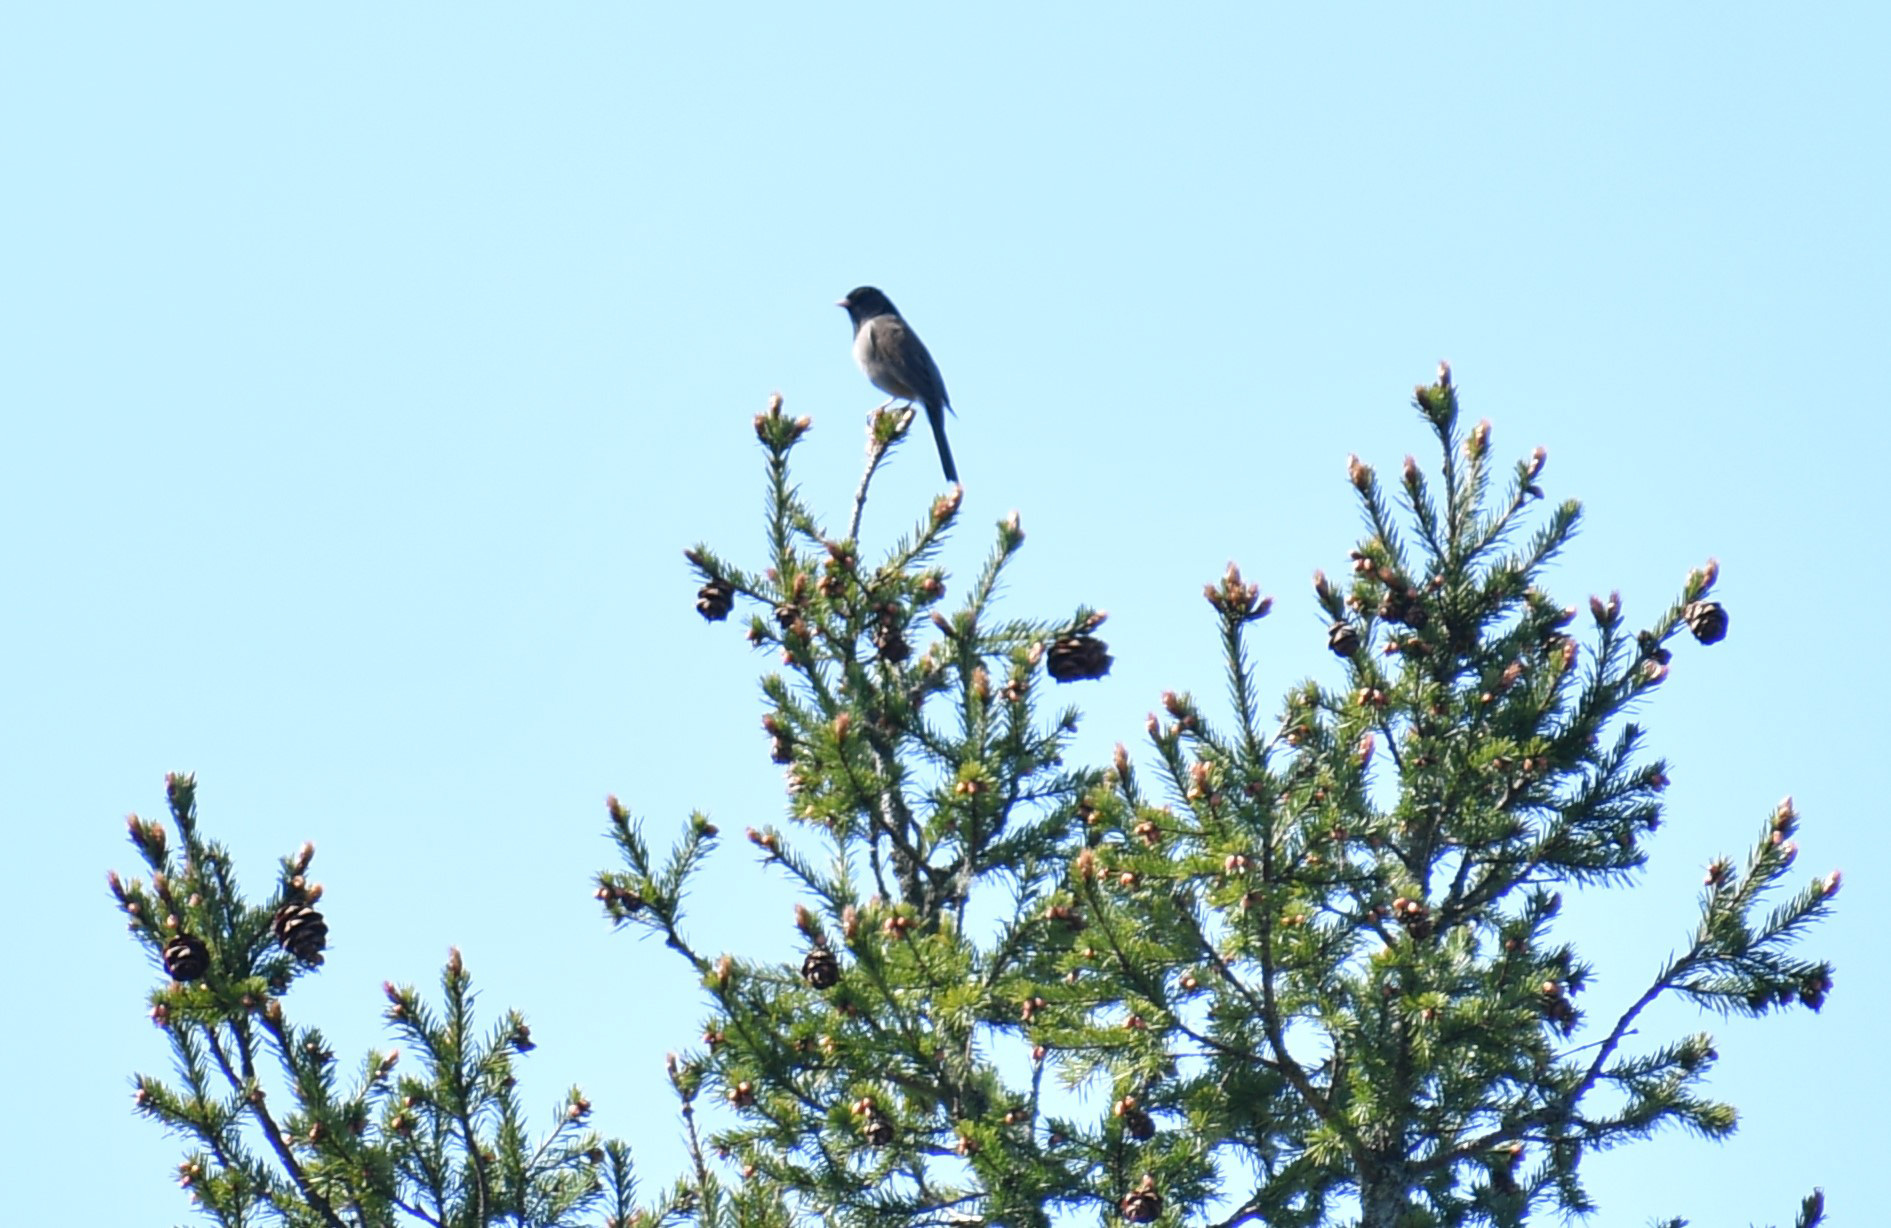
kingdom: Animalia
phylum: Chordata
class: Aves
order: Passeriformes
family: Passerellidae
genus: Junco
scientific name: Junco hyemalis
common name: Dark-eyed junco
